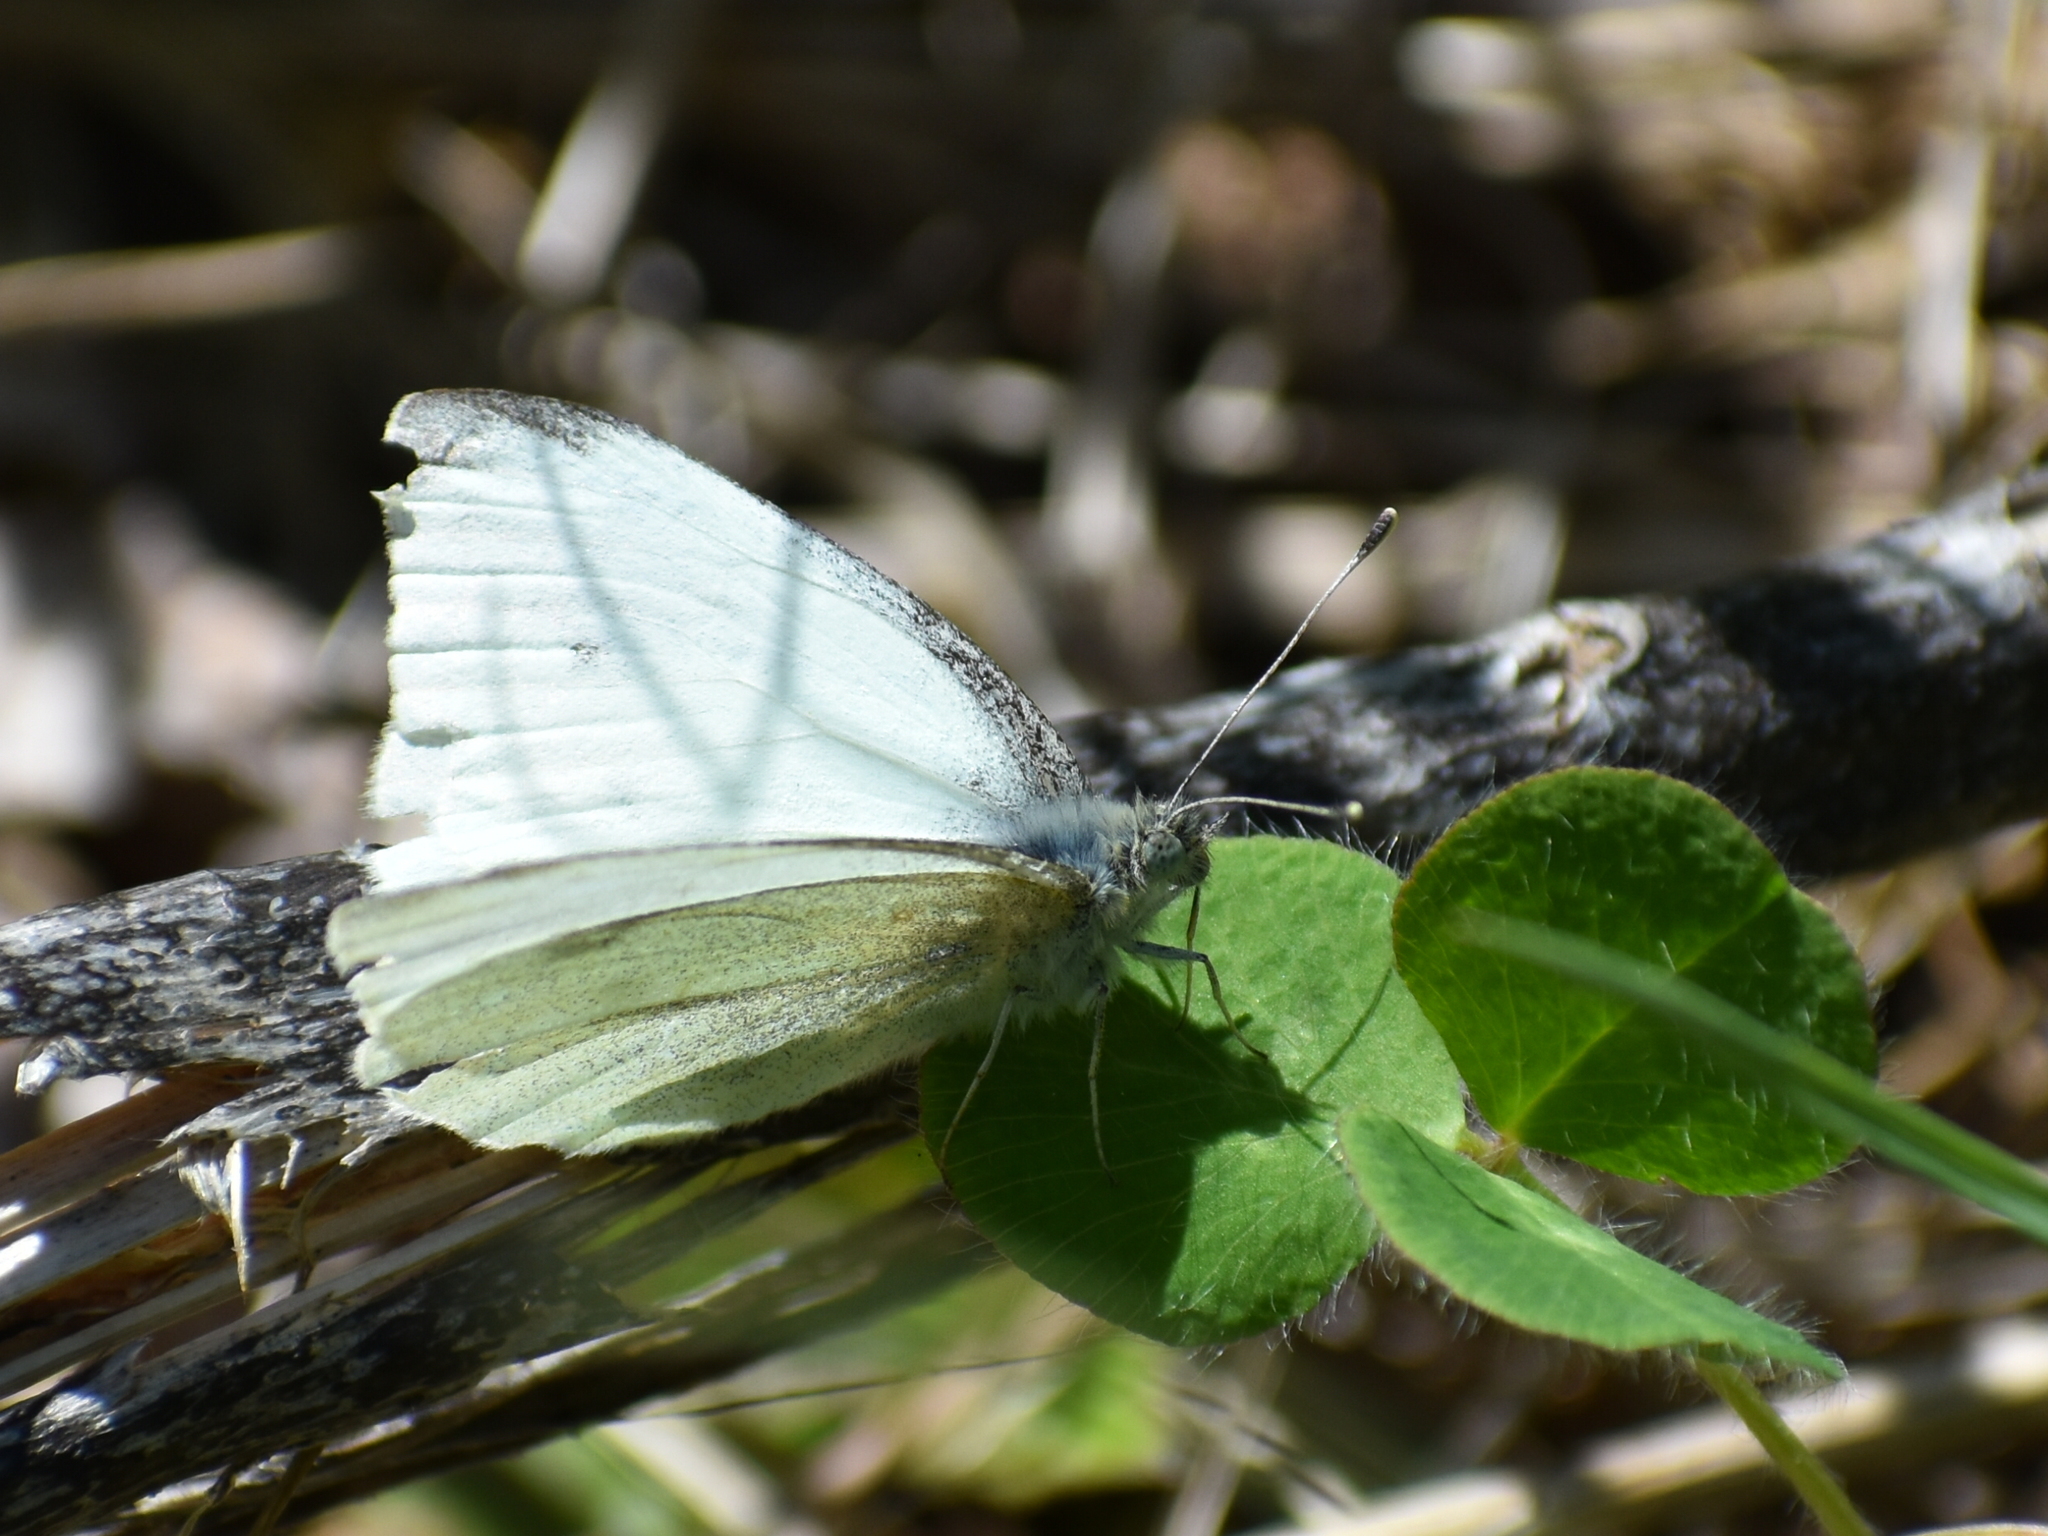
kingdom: Animalia
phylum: Arthropoda
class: Insecta
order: Lepidoptera
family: Pieridae
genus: Pieris
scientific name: Pieris rapae
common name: Small white
